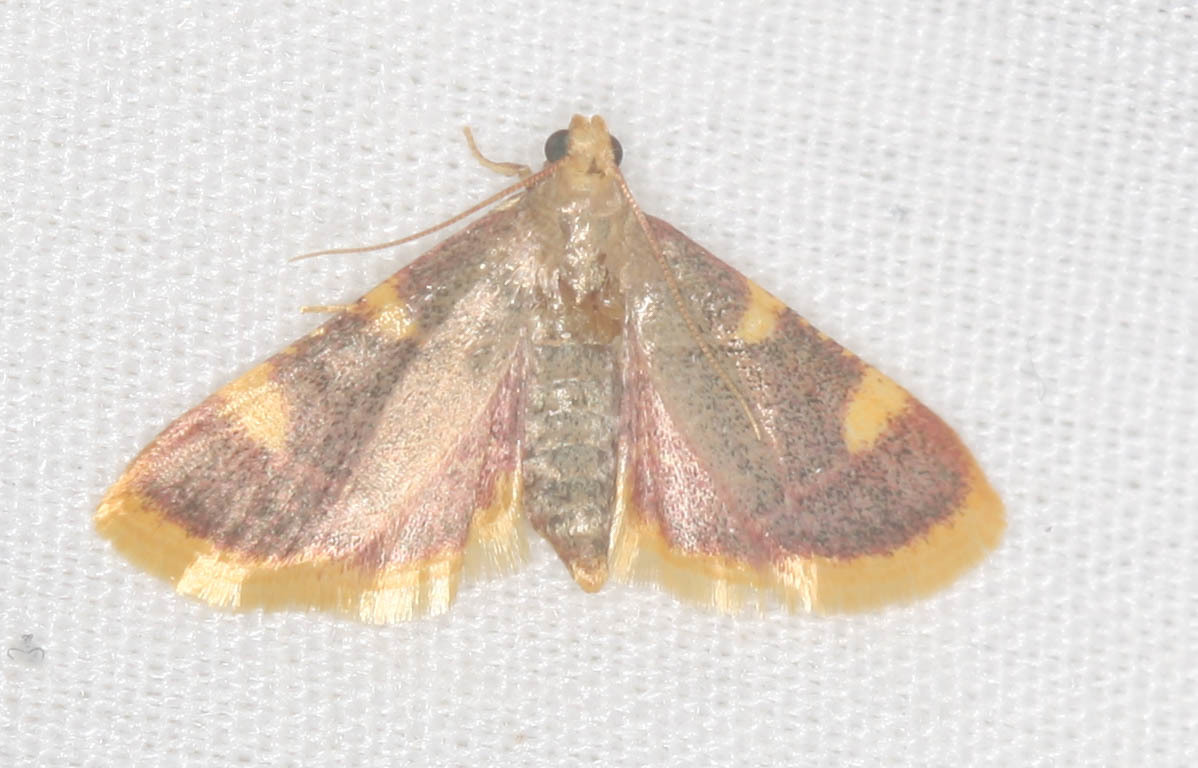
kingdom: Animalia
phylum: Arthropoda
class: Insecta
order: Lepidoptera
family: Pyralidae
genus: Hypsopygia
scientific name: Hypsopygia costalis
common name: Gold triangle
